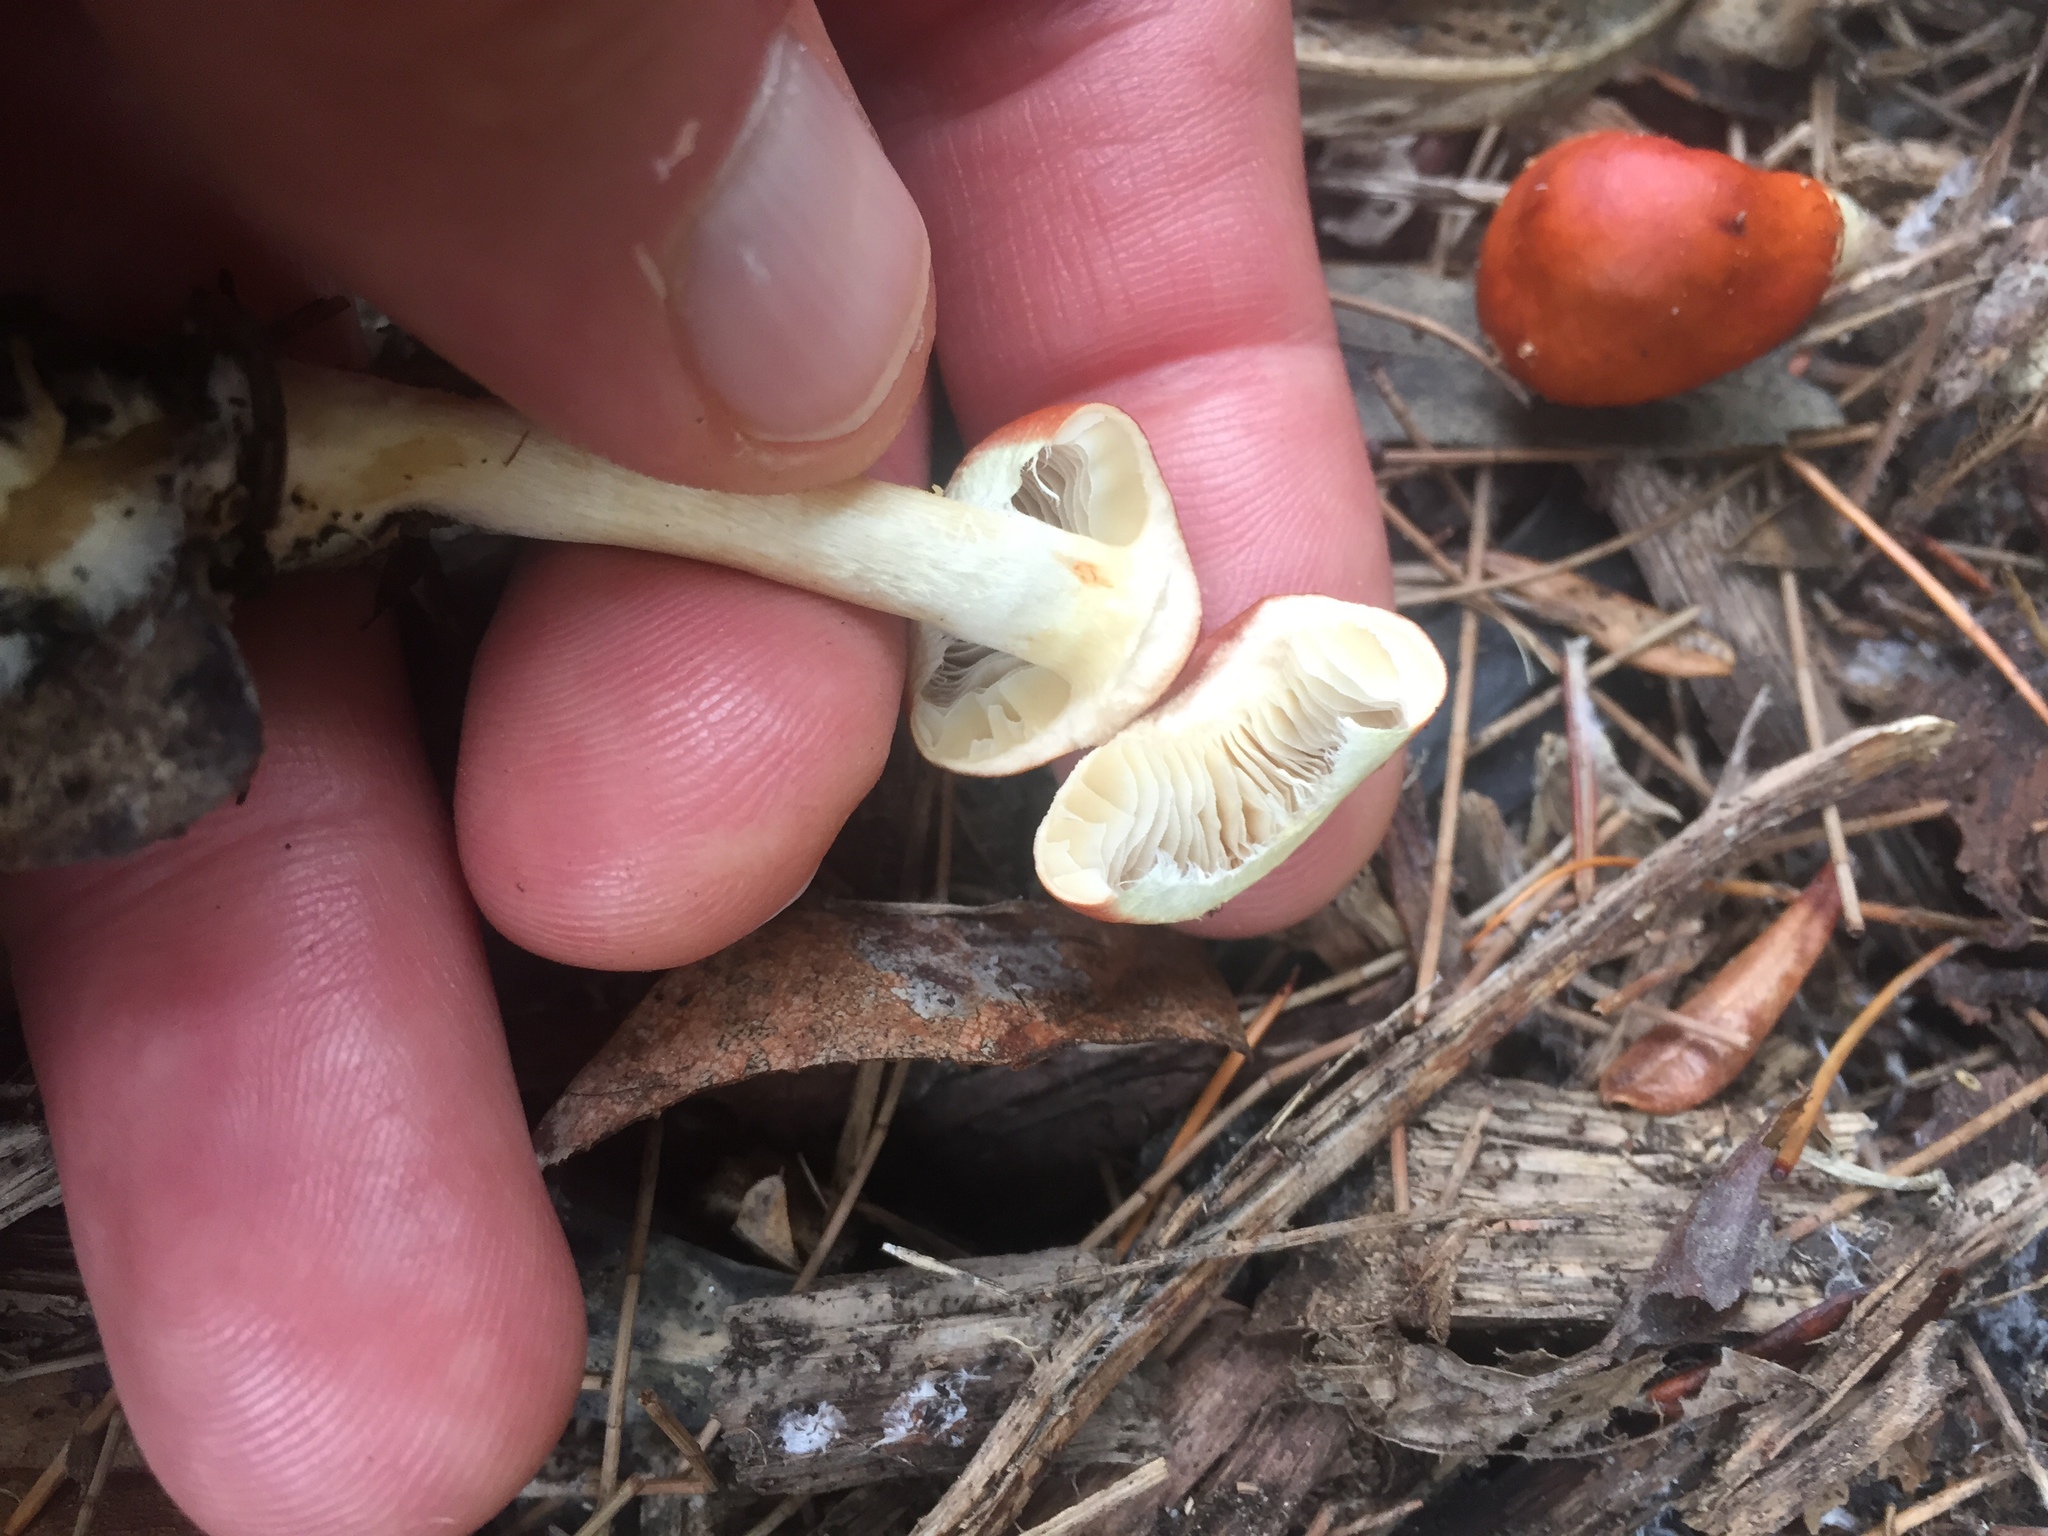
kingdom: Fungi
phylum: Basidiomycota
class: Agaricomycetes
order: Agaricales
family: Strophariaceae
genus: Leratiomyces
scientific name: Leratiomyces ceres
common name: Redlead roundhead
